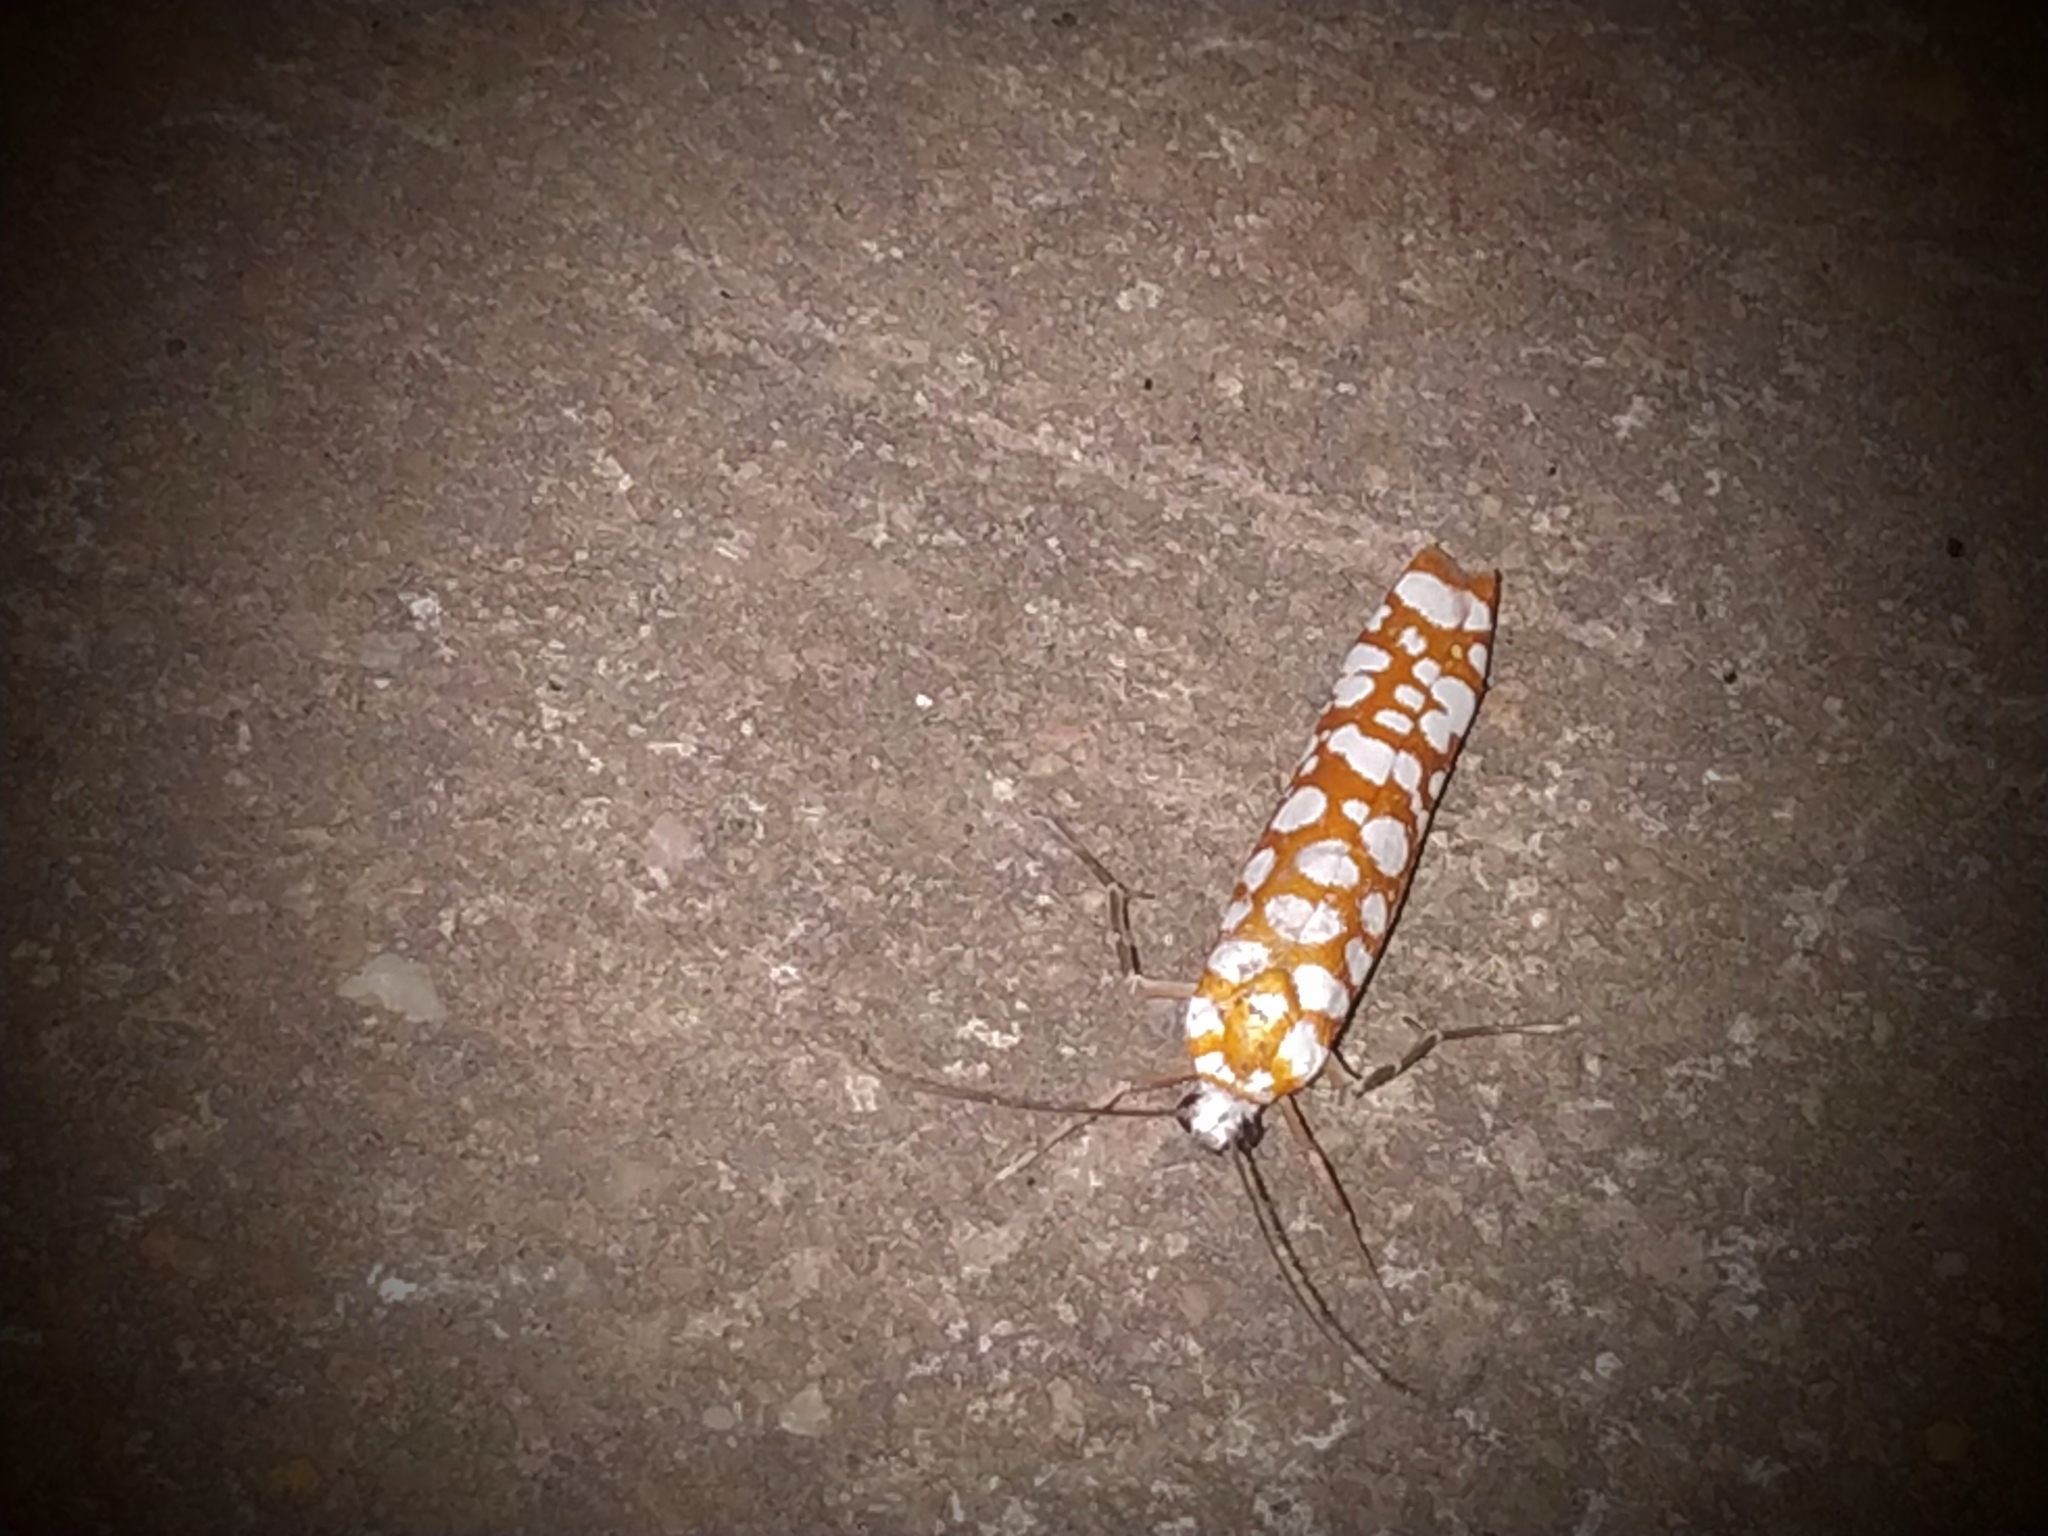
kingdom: Animalia
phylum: Arthropoda
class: Insecta
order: Lepidoptera
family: Attevidae
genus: Atteva
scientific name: Atteva fabriciella
